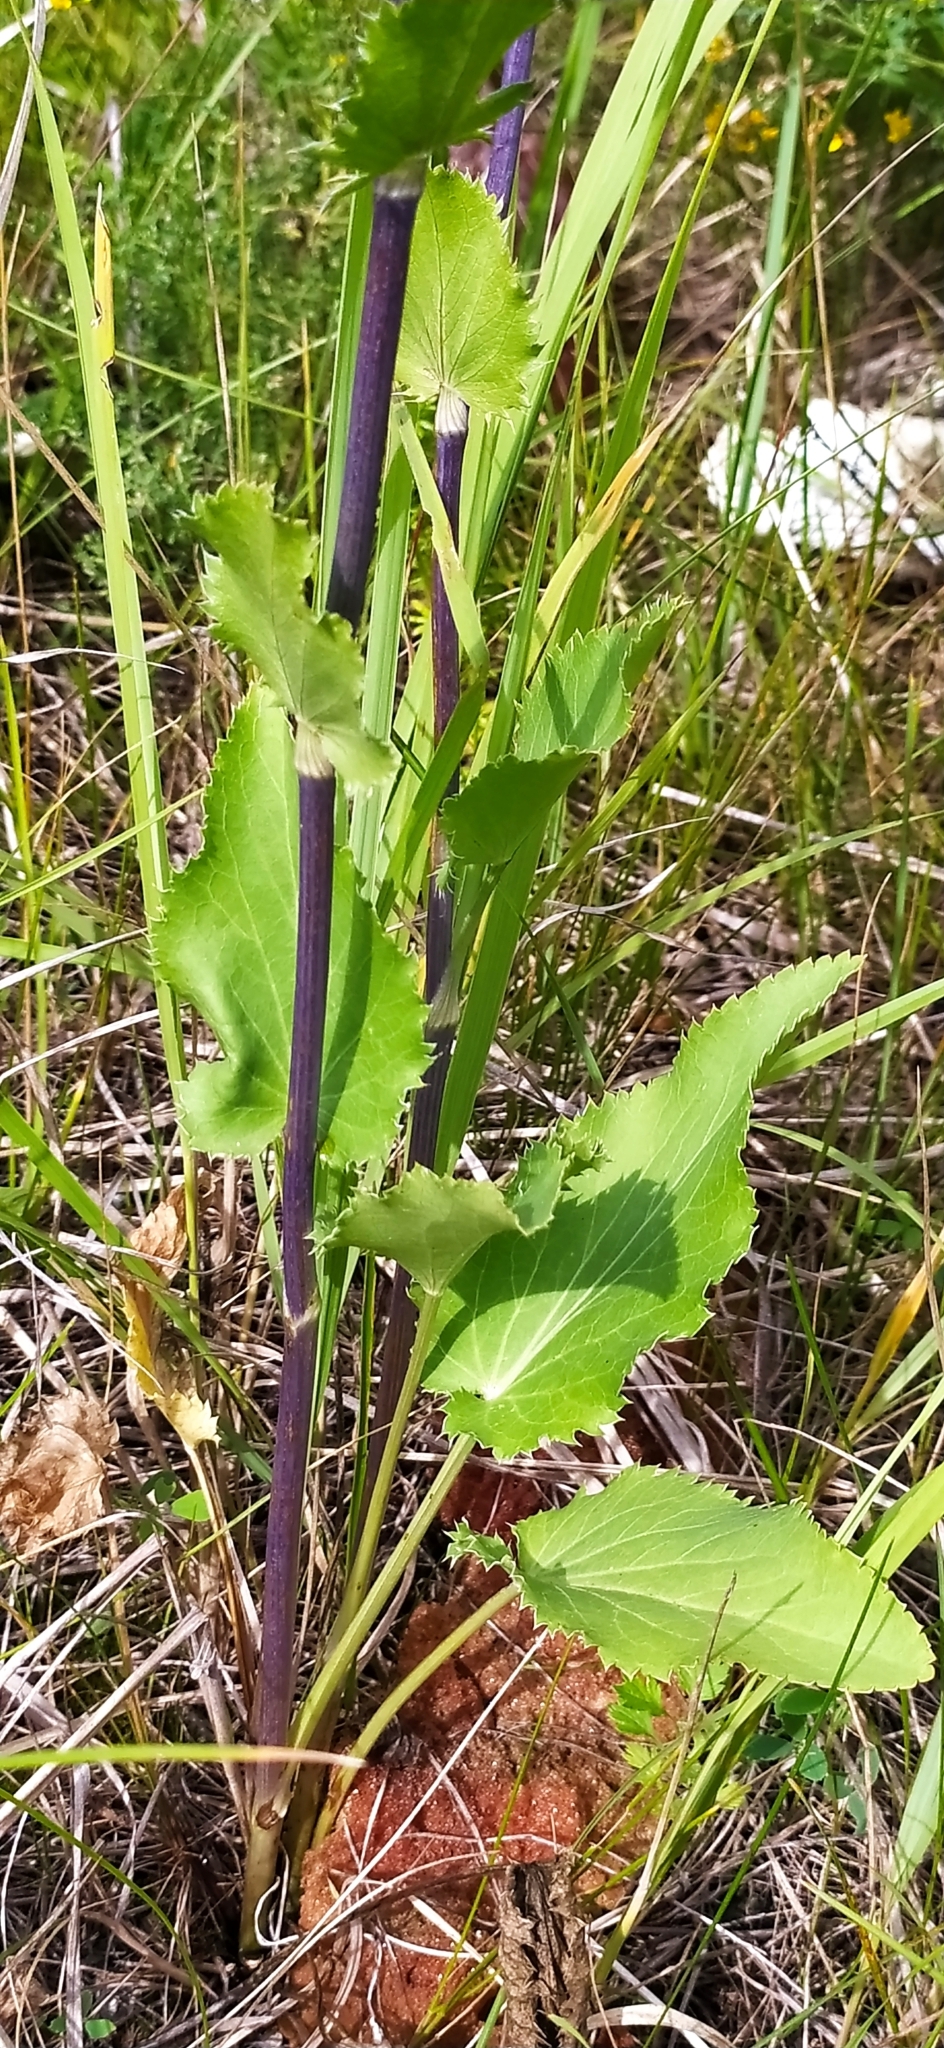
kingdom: Plantae
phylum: Tracheophyta
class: Magnoliopsida
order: Apiales
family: Apiaceae
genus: Eryngium
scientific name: Eryngium planum
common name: Blue eryngo
